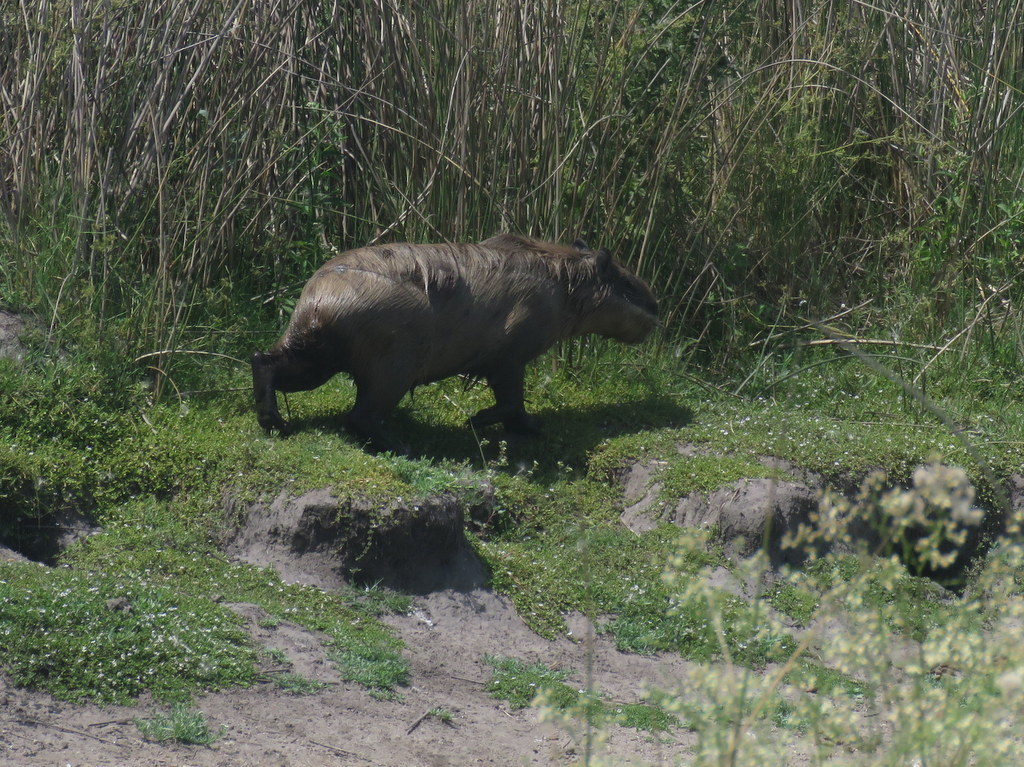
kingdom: Animalia
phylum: Chordata
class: Mammalia
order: Rodentia
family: Caviidae
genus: Hydrochoerus
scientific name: Hydrochoerus hydrochaeris
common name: Capybara
